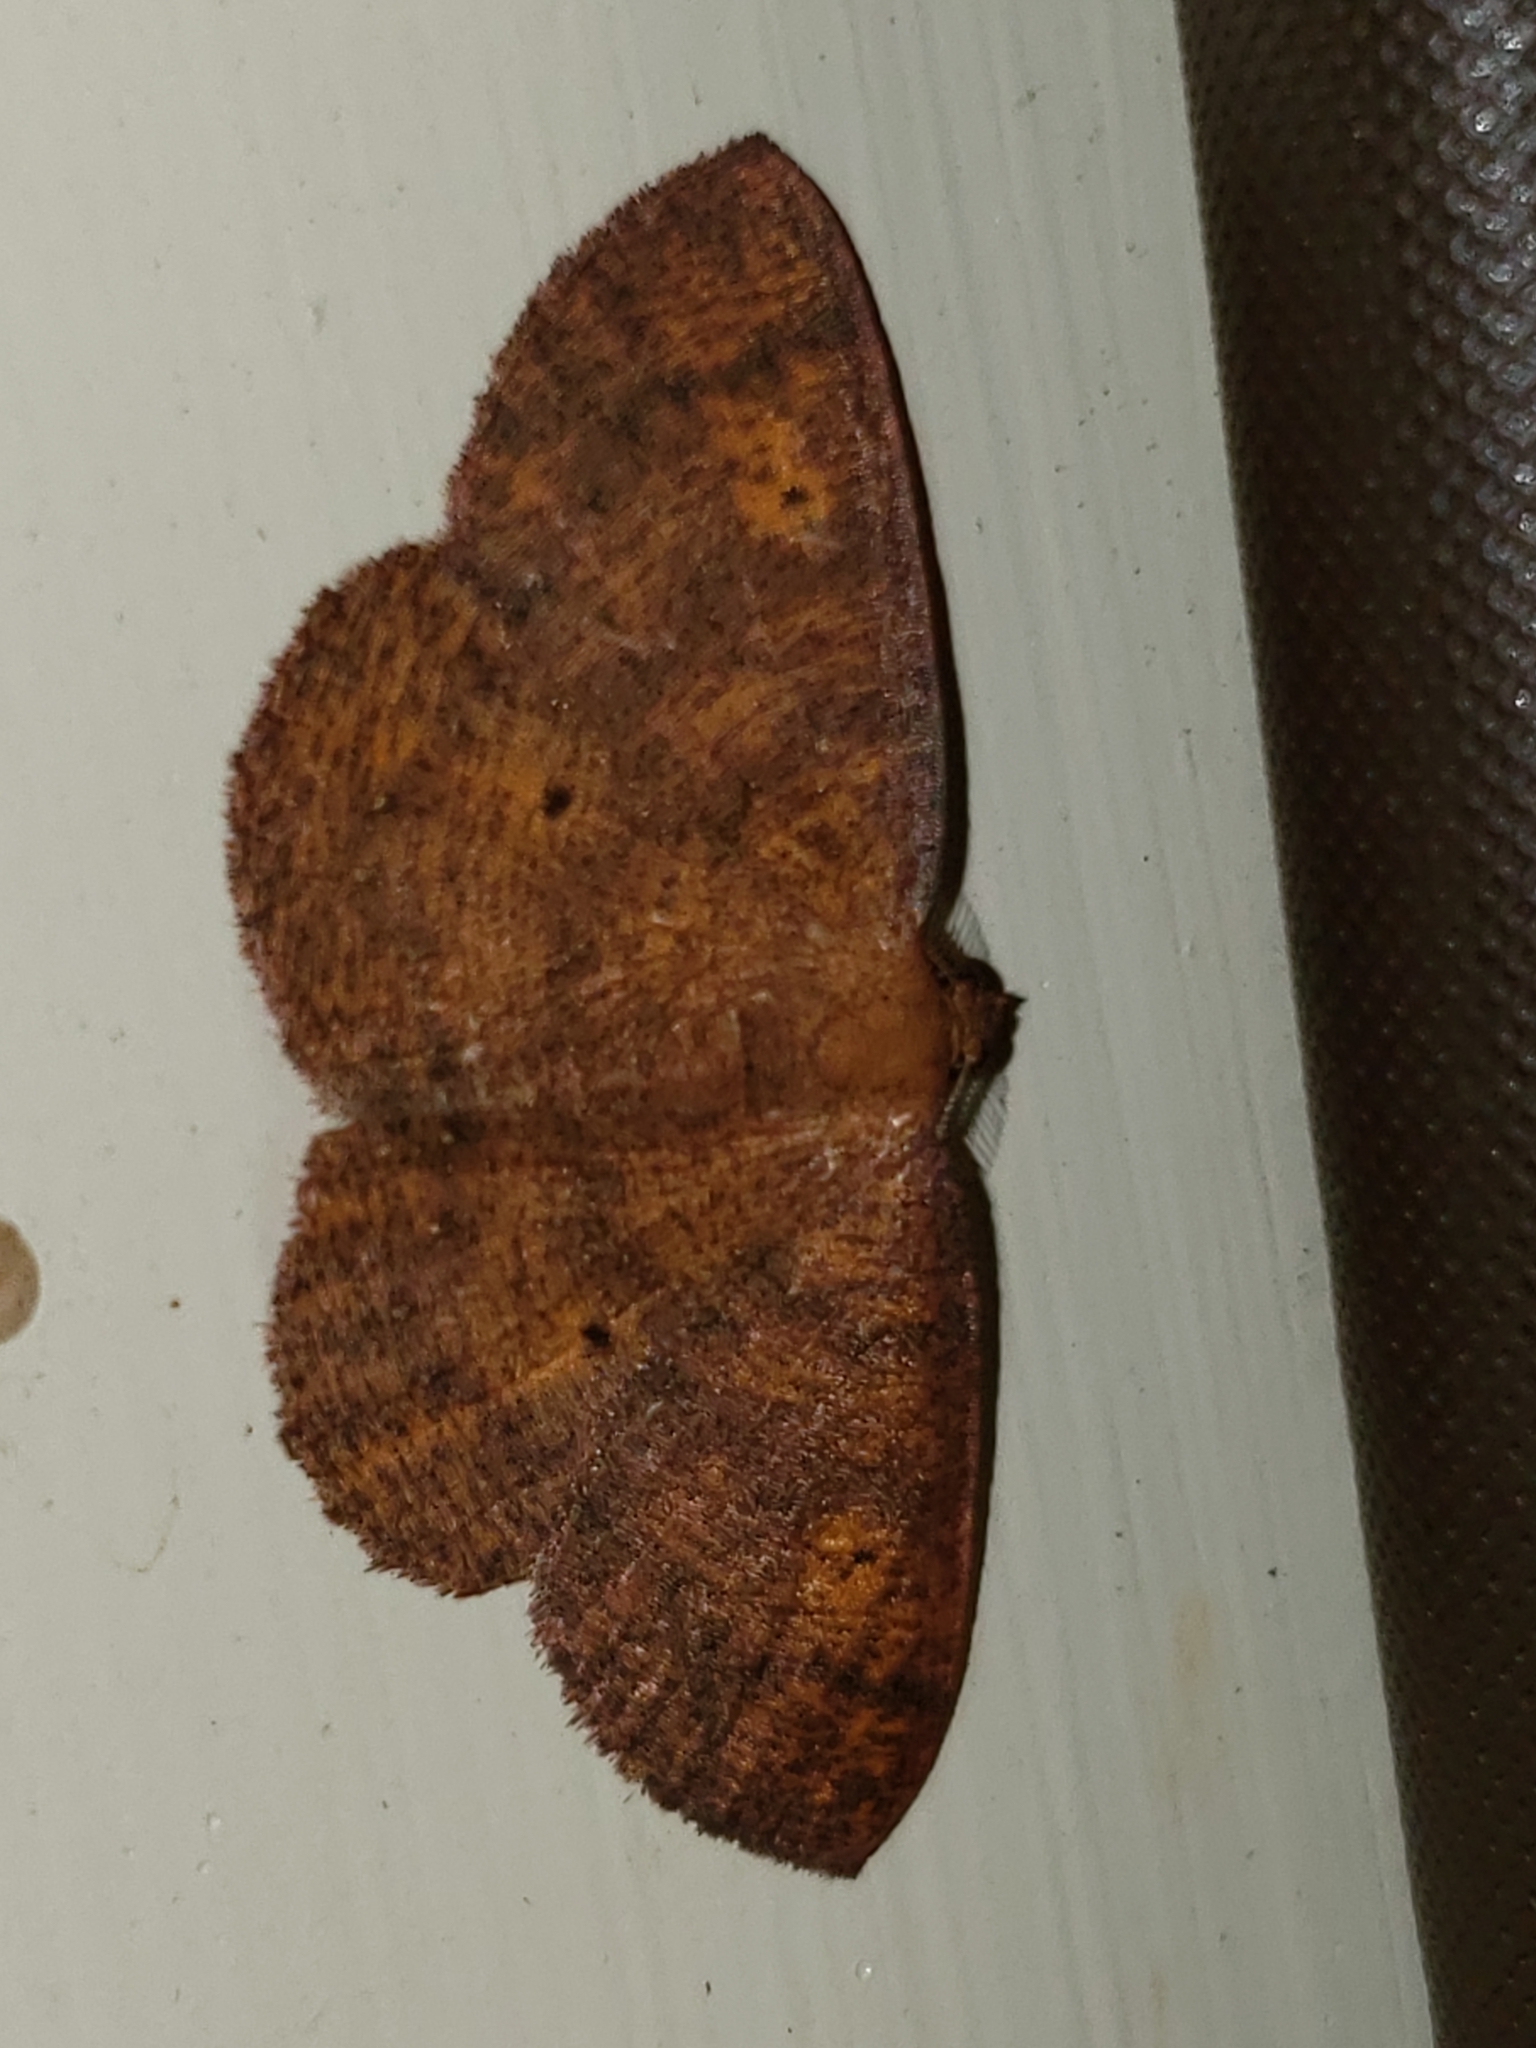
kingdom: Animalia
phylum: Arthropoda
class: Insecta
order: Lepidoptera
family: Geometridae
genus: Ilexia
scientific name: Ilexia intractata
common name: Black-dotted ruddy moth
